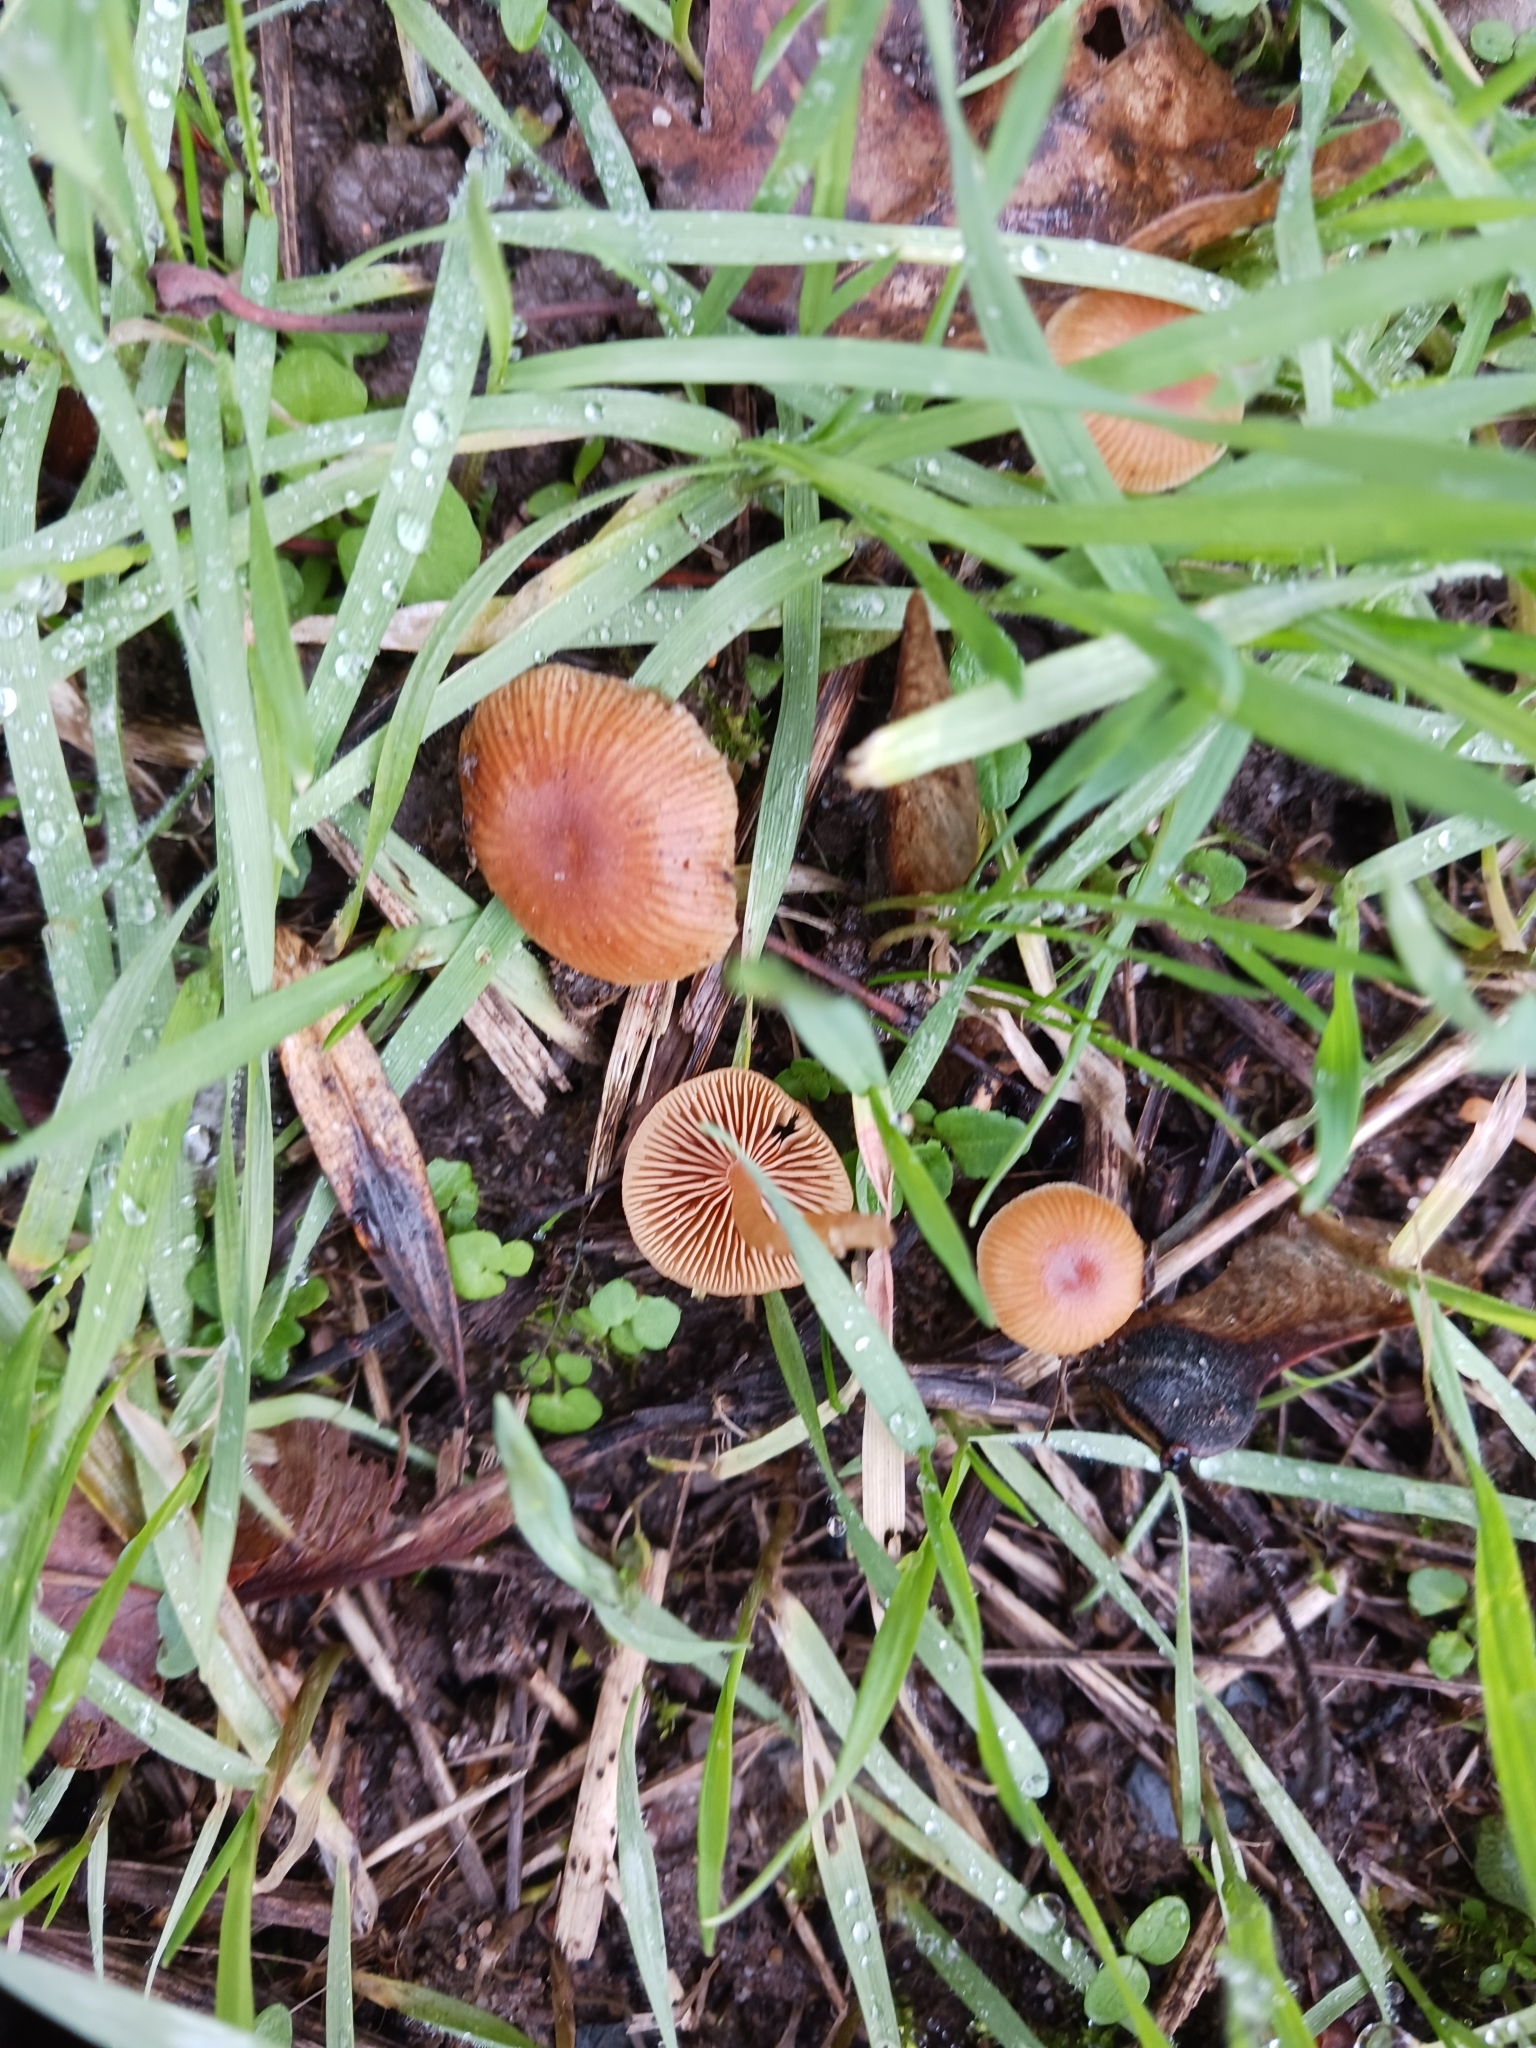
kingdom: Fungi
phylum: Basidiomycota
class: Agaricomycetes
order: Agaricales
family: Tubariaceae
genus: Tubaria
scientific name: Tubaria
